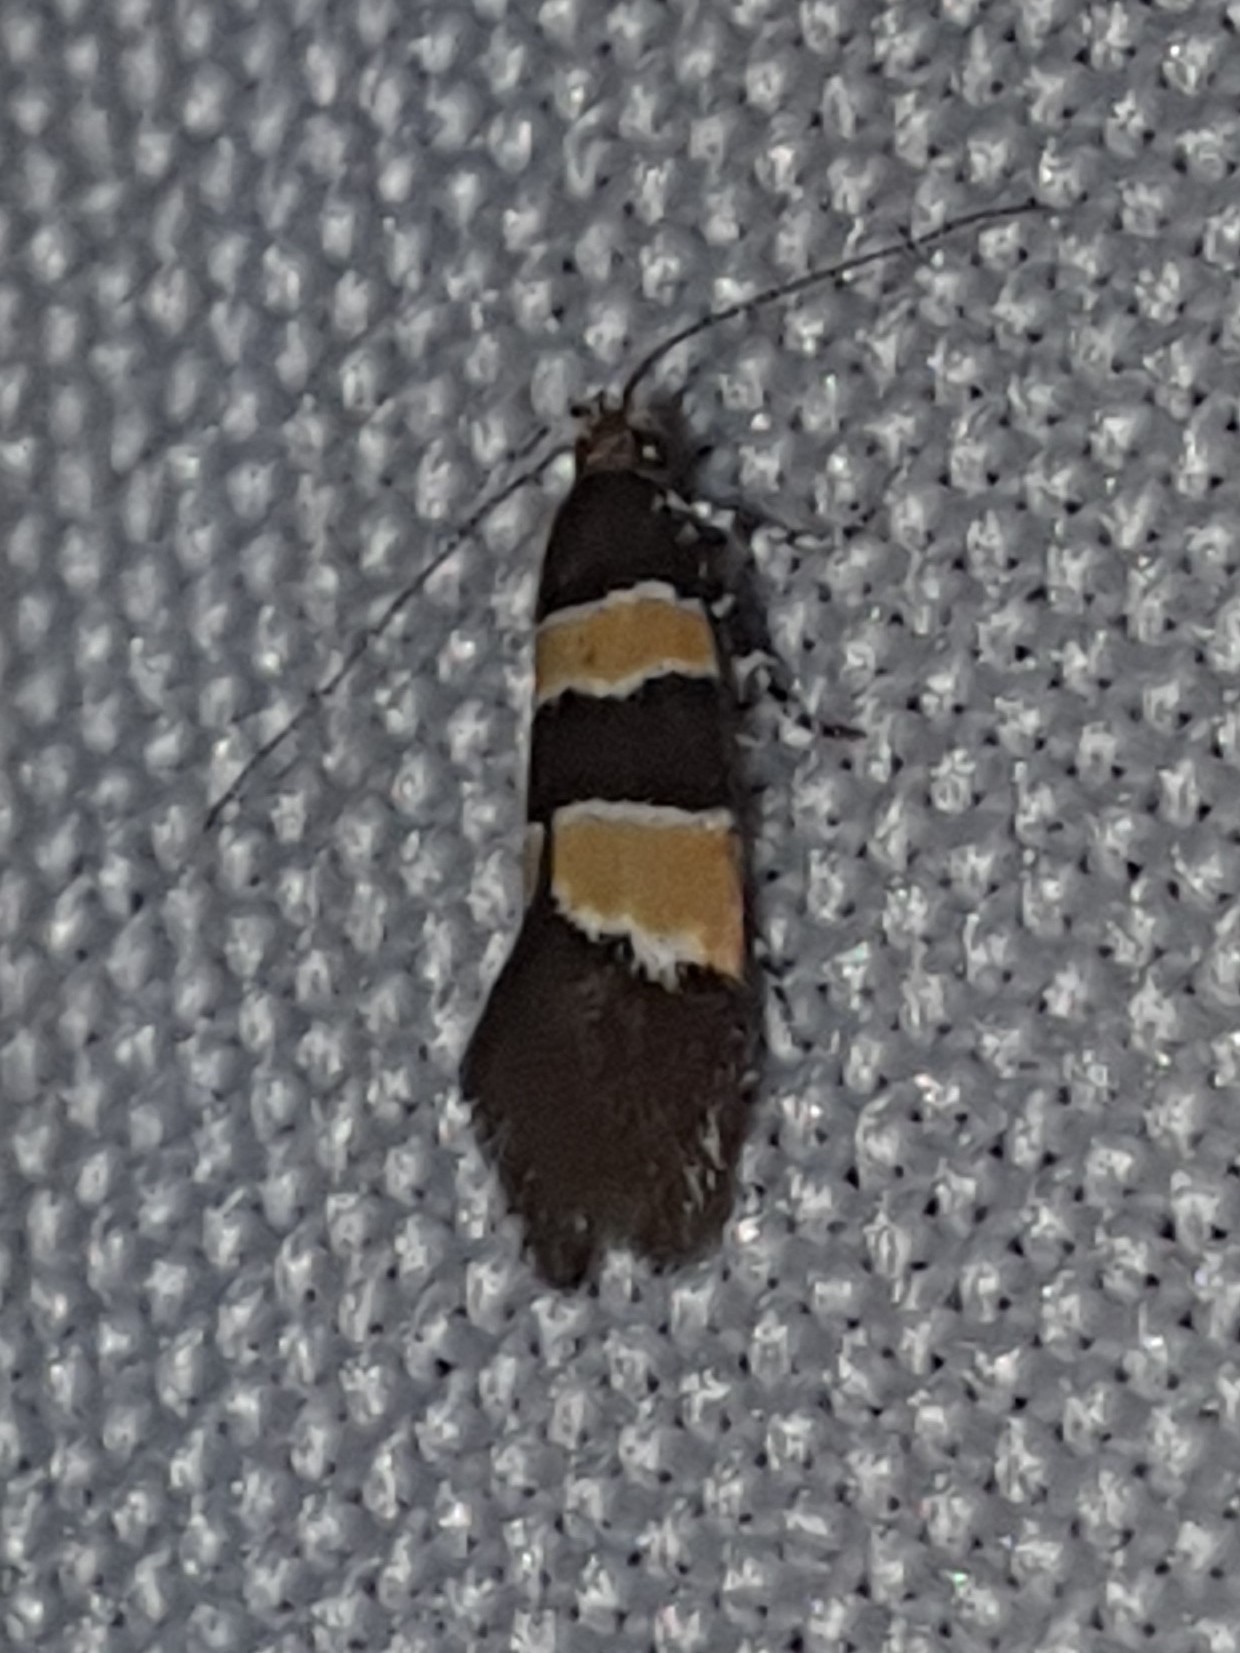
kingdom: Animalia
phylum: Arthropoda
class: Insecta
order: Lepidoptera
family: Oecophoridae
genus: Goidanichiana
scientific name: Goidanichiana jourdheuillella
